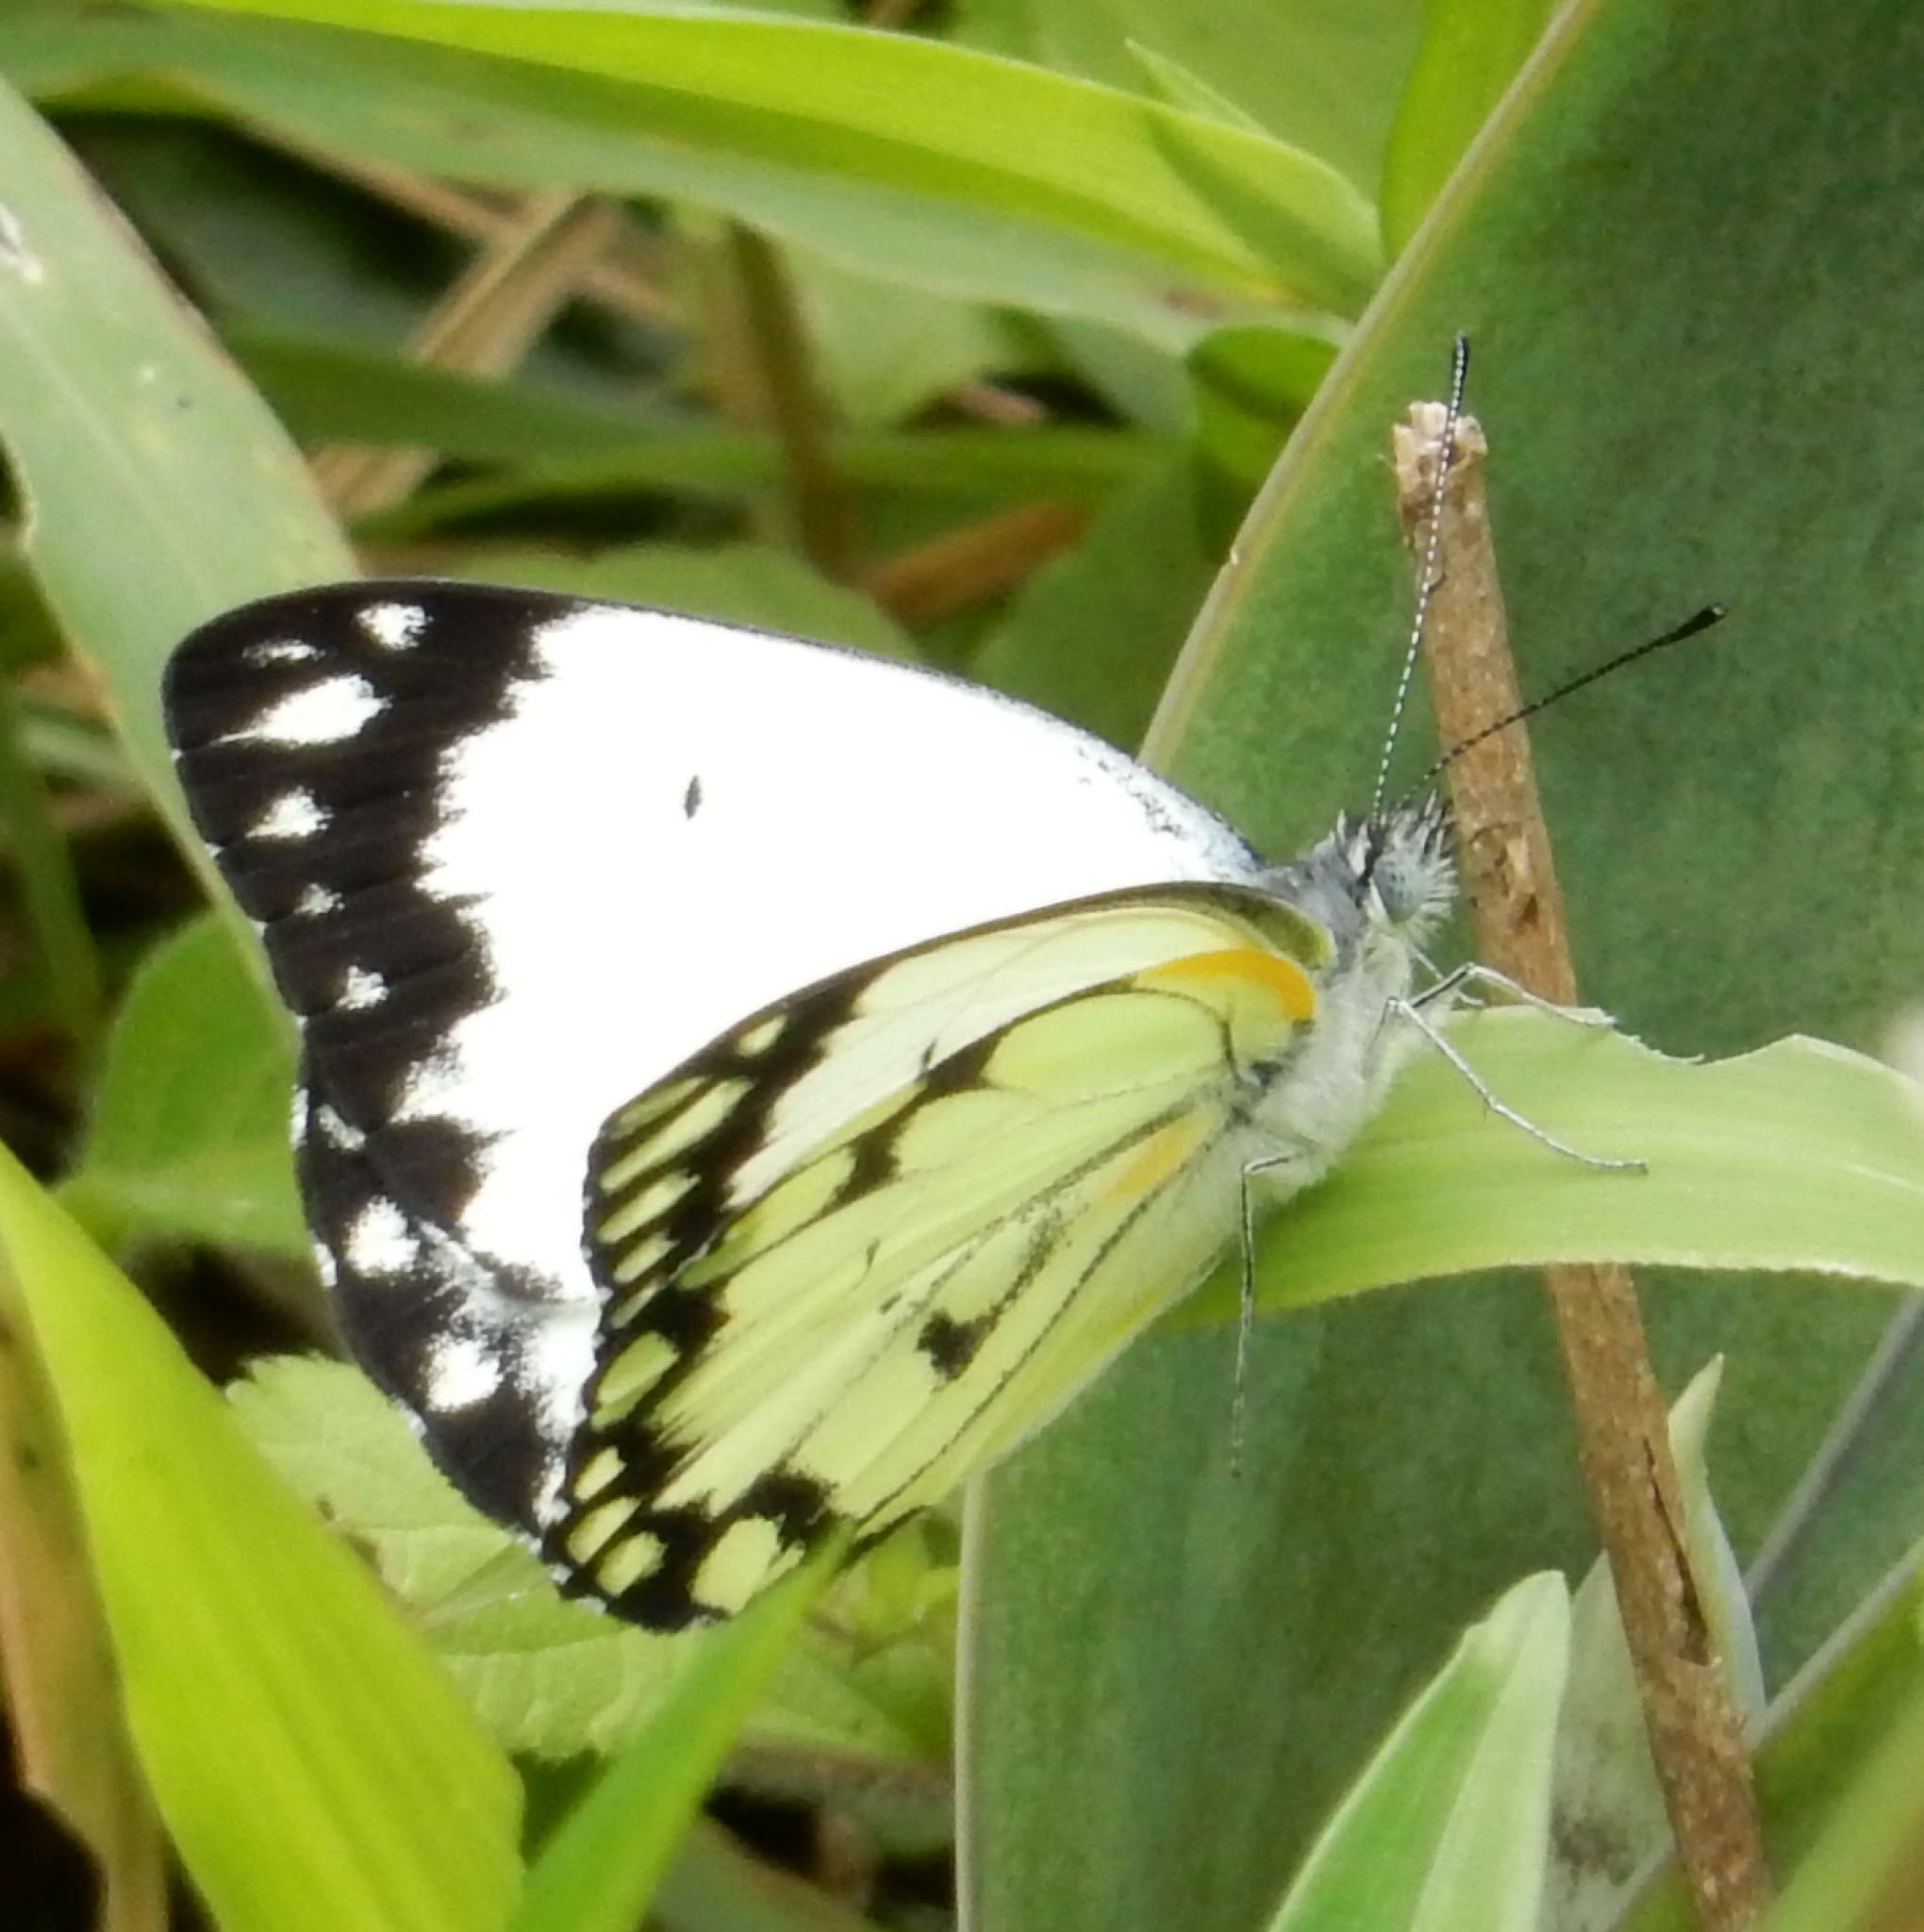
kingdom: Animalia
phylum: Arthropoda
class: Insecta
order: Lepidoptera
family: Pieridae
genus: Belenois
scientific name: Belenois creona
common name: African caper white
